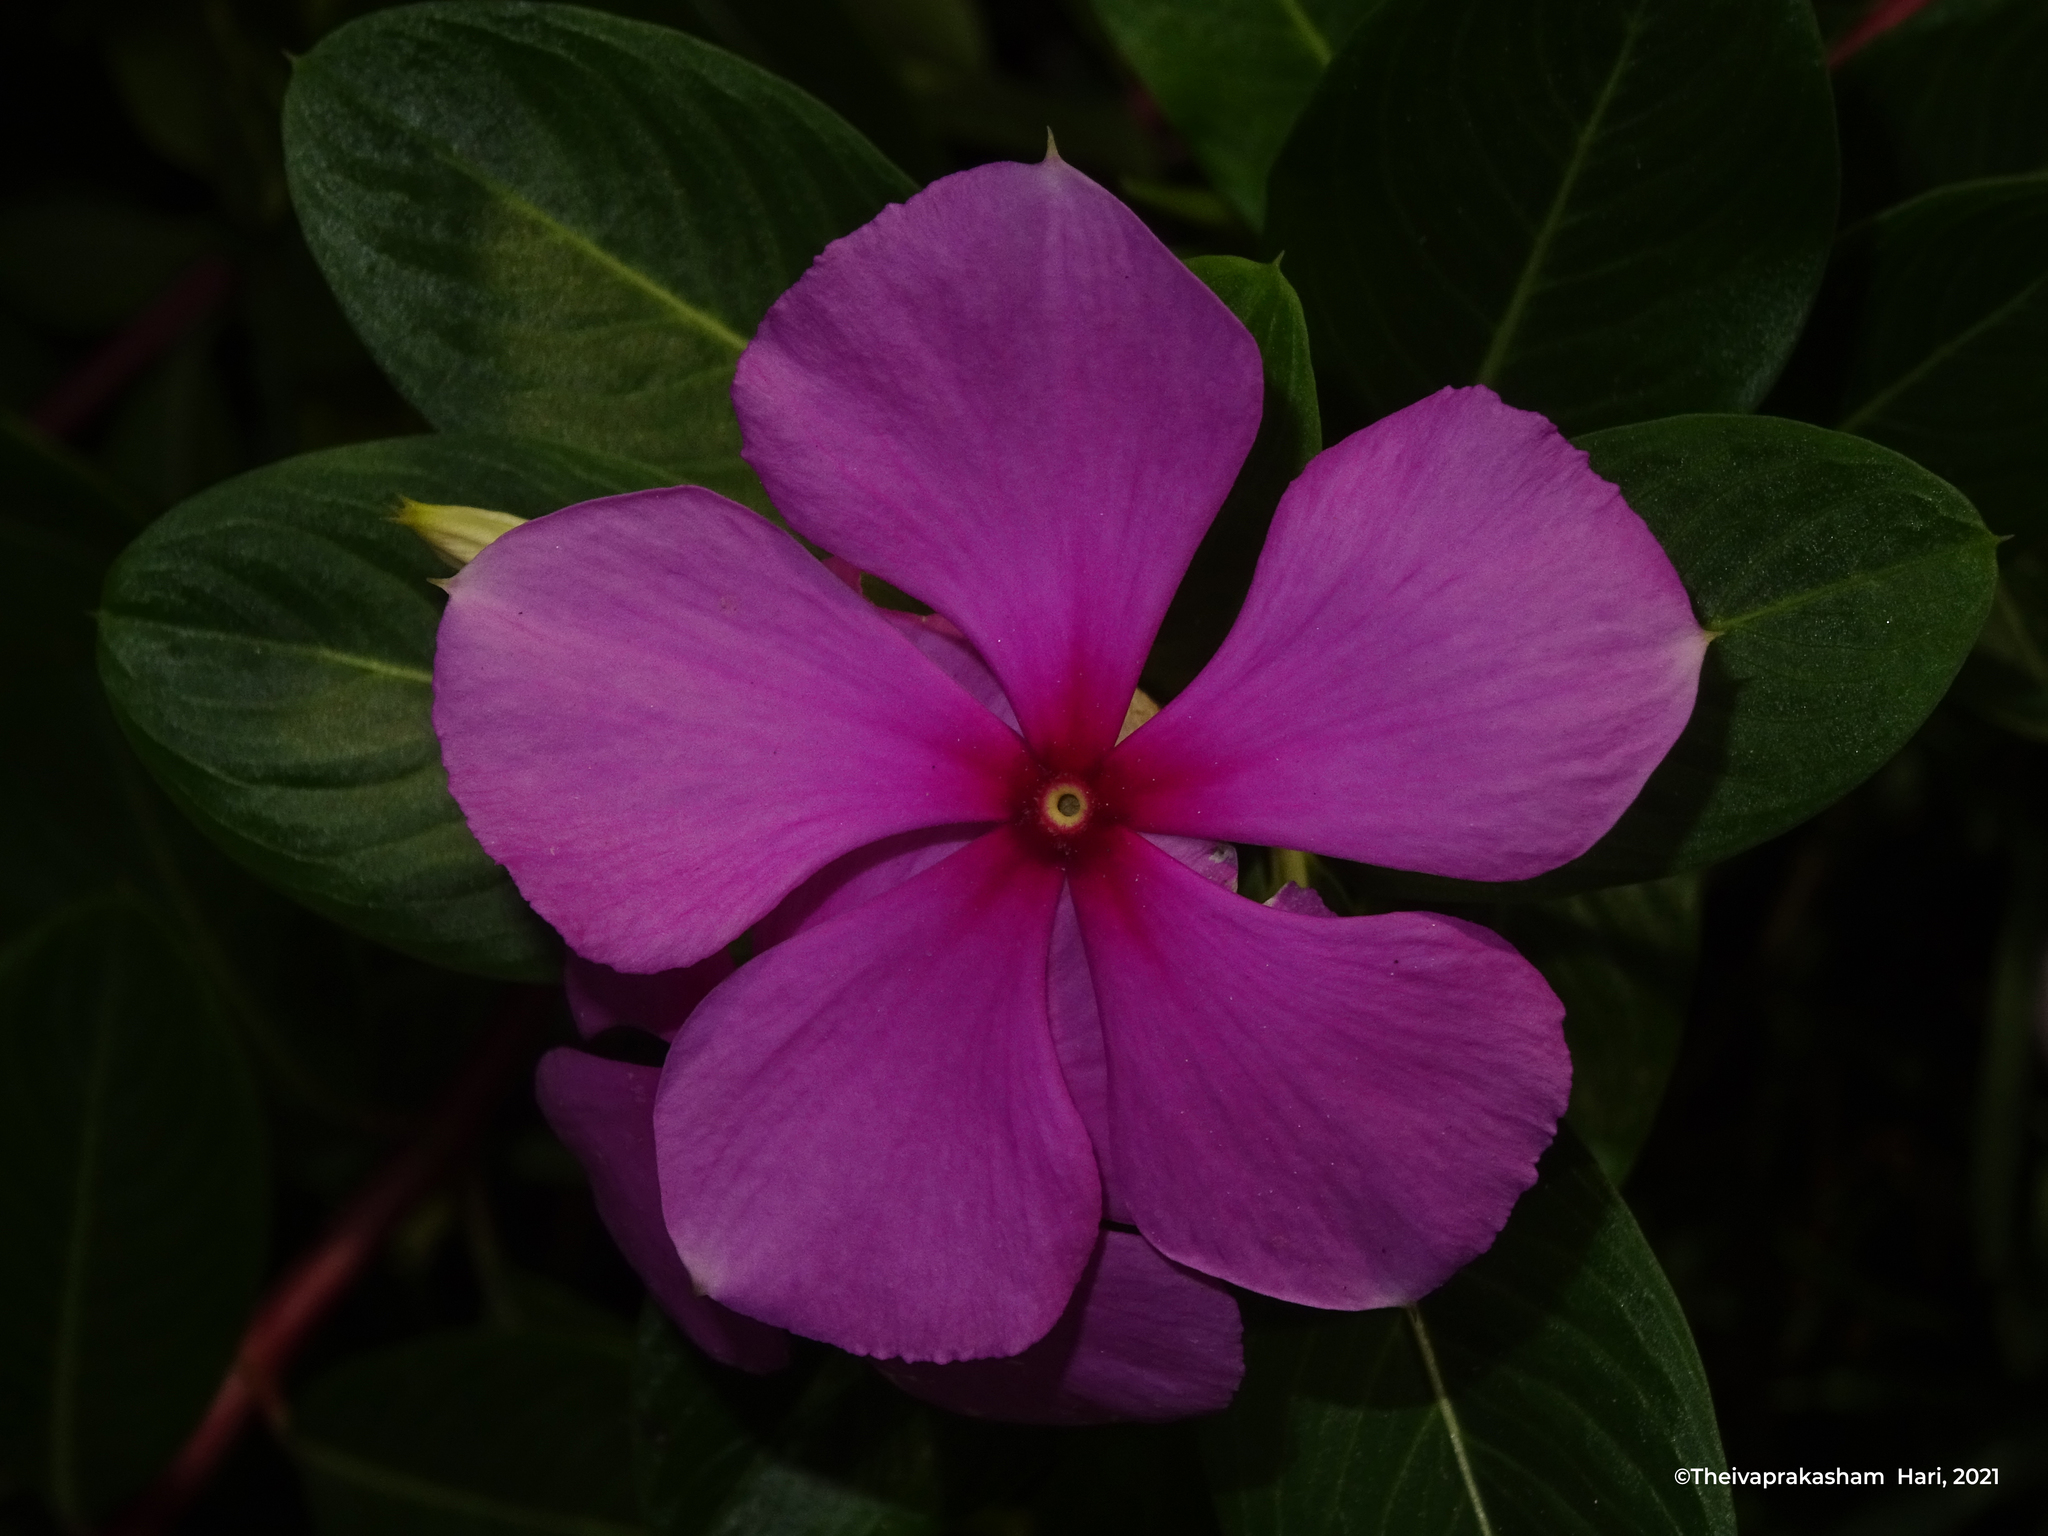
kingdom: Plantae
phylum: Tracheophyta
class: Magnoliopsida
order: Gentianales
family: Apocynaceae
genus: Catharanthus
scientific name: Catharanthus roseus
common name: Madagascar periwinkle
